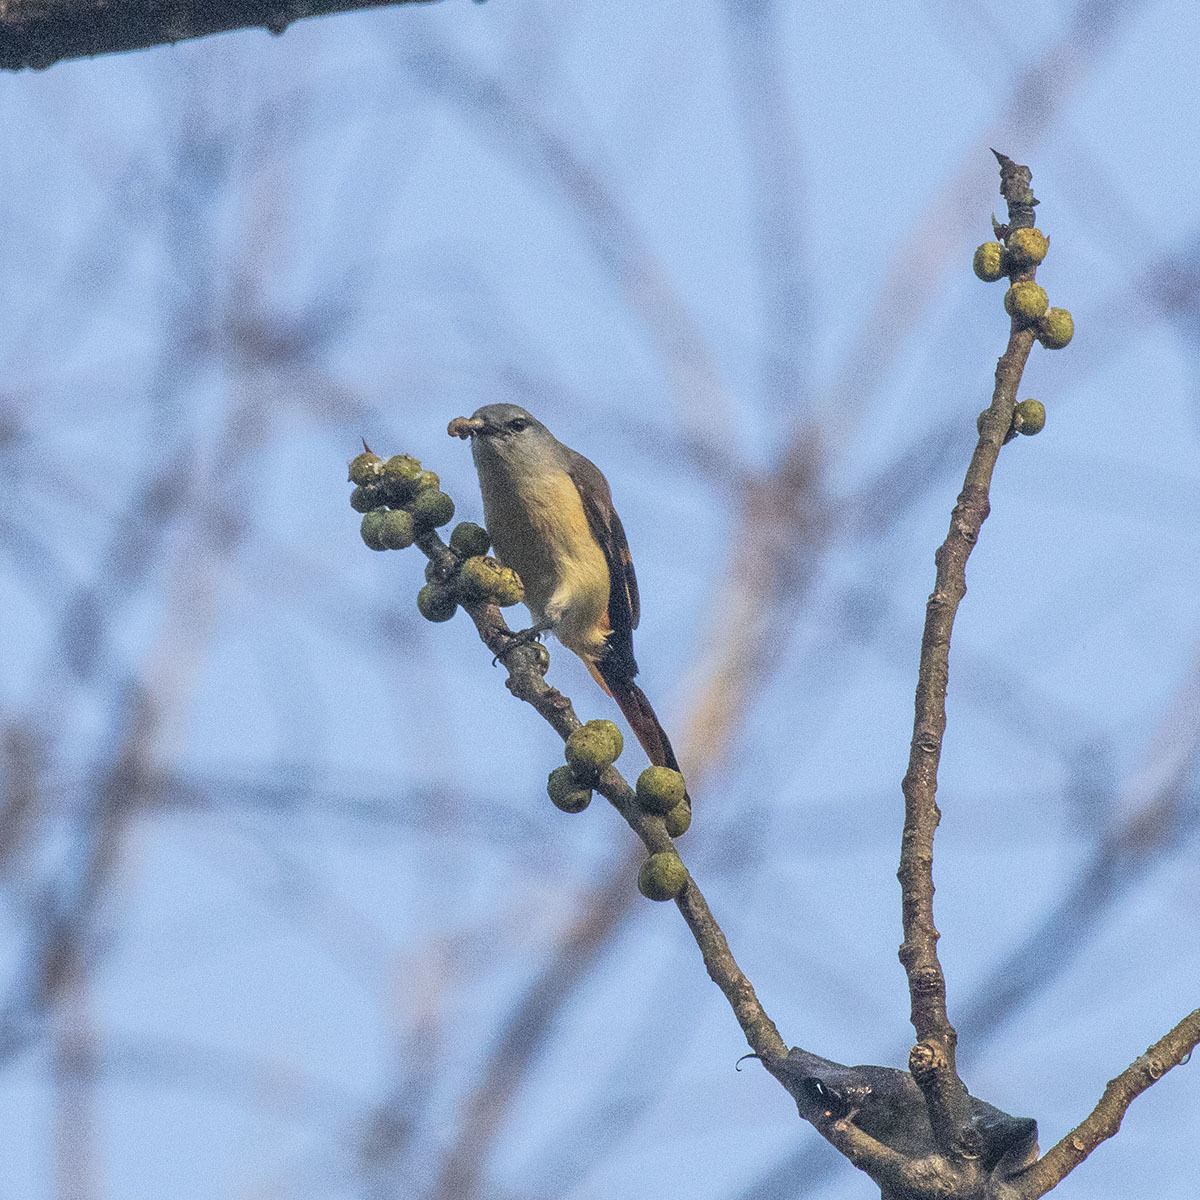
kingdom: Animalia
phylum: Chordata
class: Aves
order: Passeriformes
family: Campephagidae
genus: Pericrocotus
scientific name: Pericrocotus cinnamomeus
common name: Small minivet
